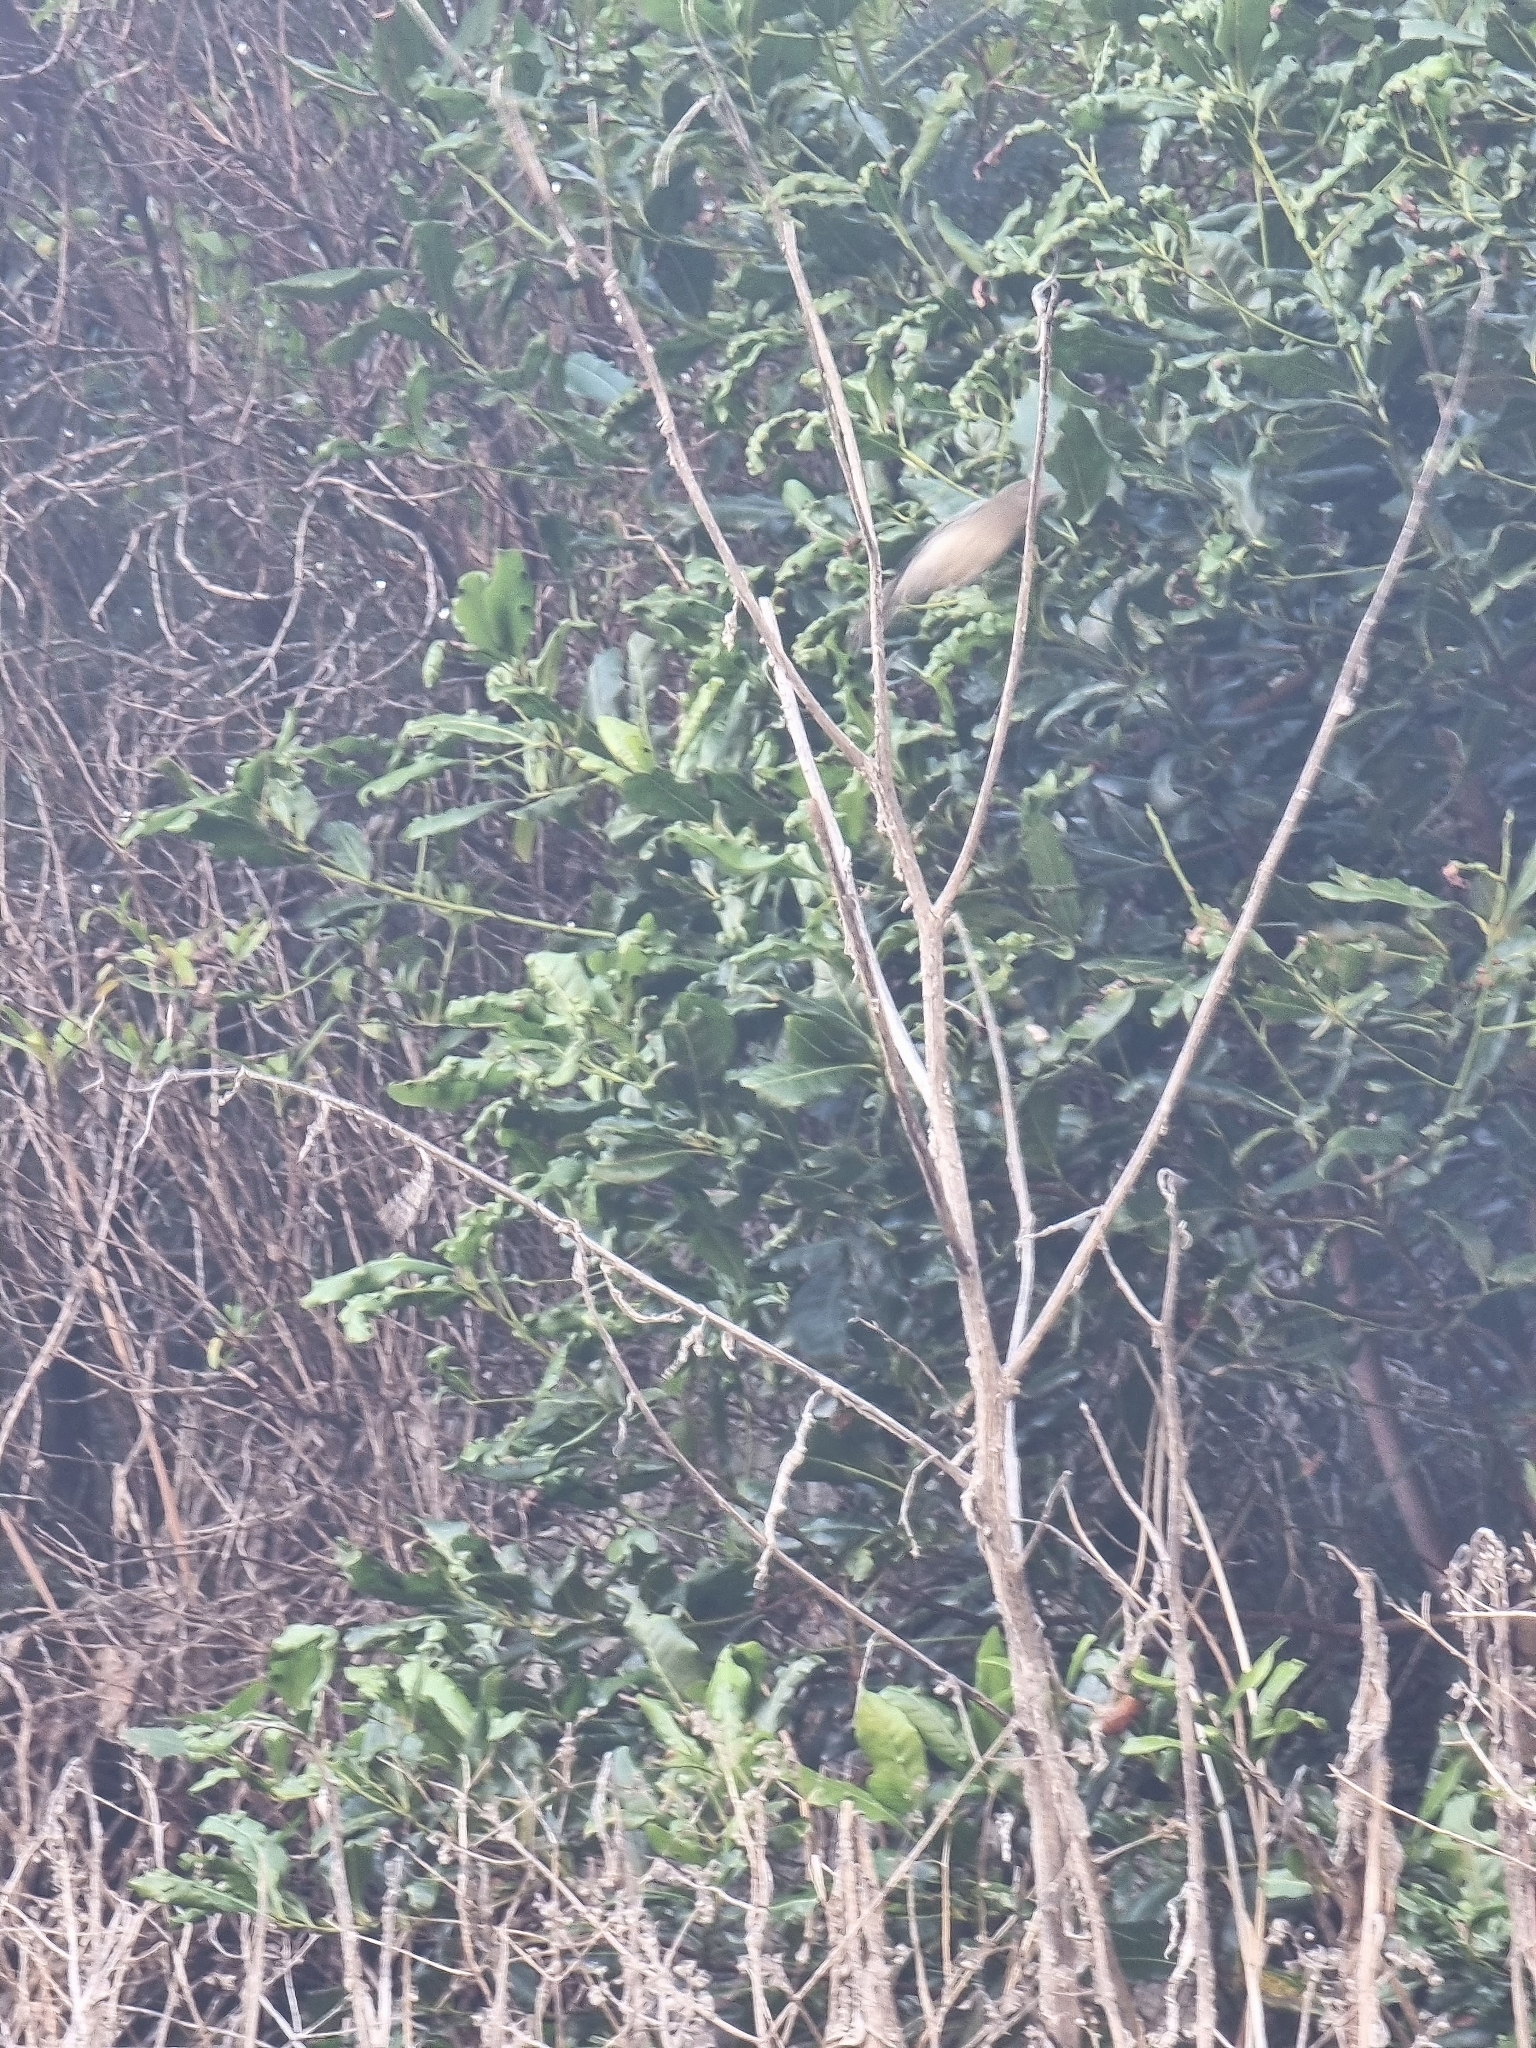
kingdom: Plantae
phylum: Tracheophyta
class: Magnoliopsida
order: Laurales
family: Lauraceae
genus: Apollonias
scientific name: Apollonias barbujana
